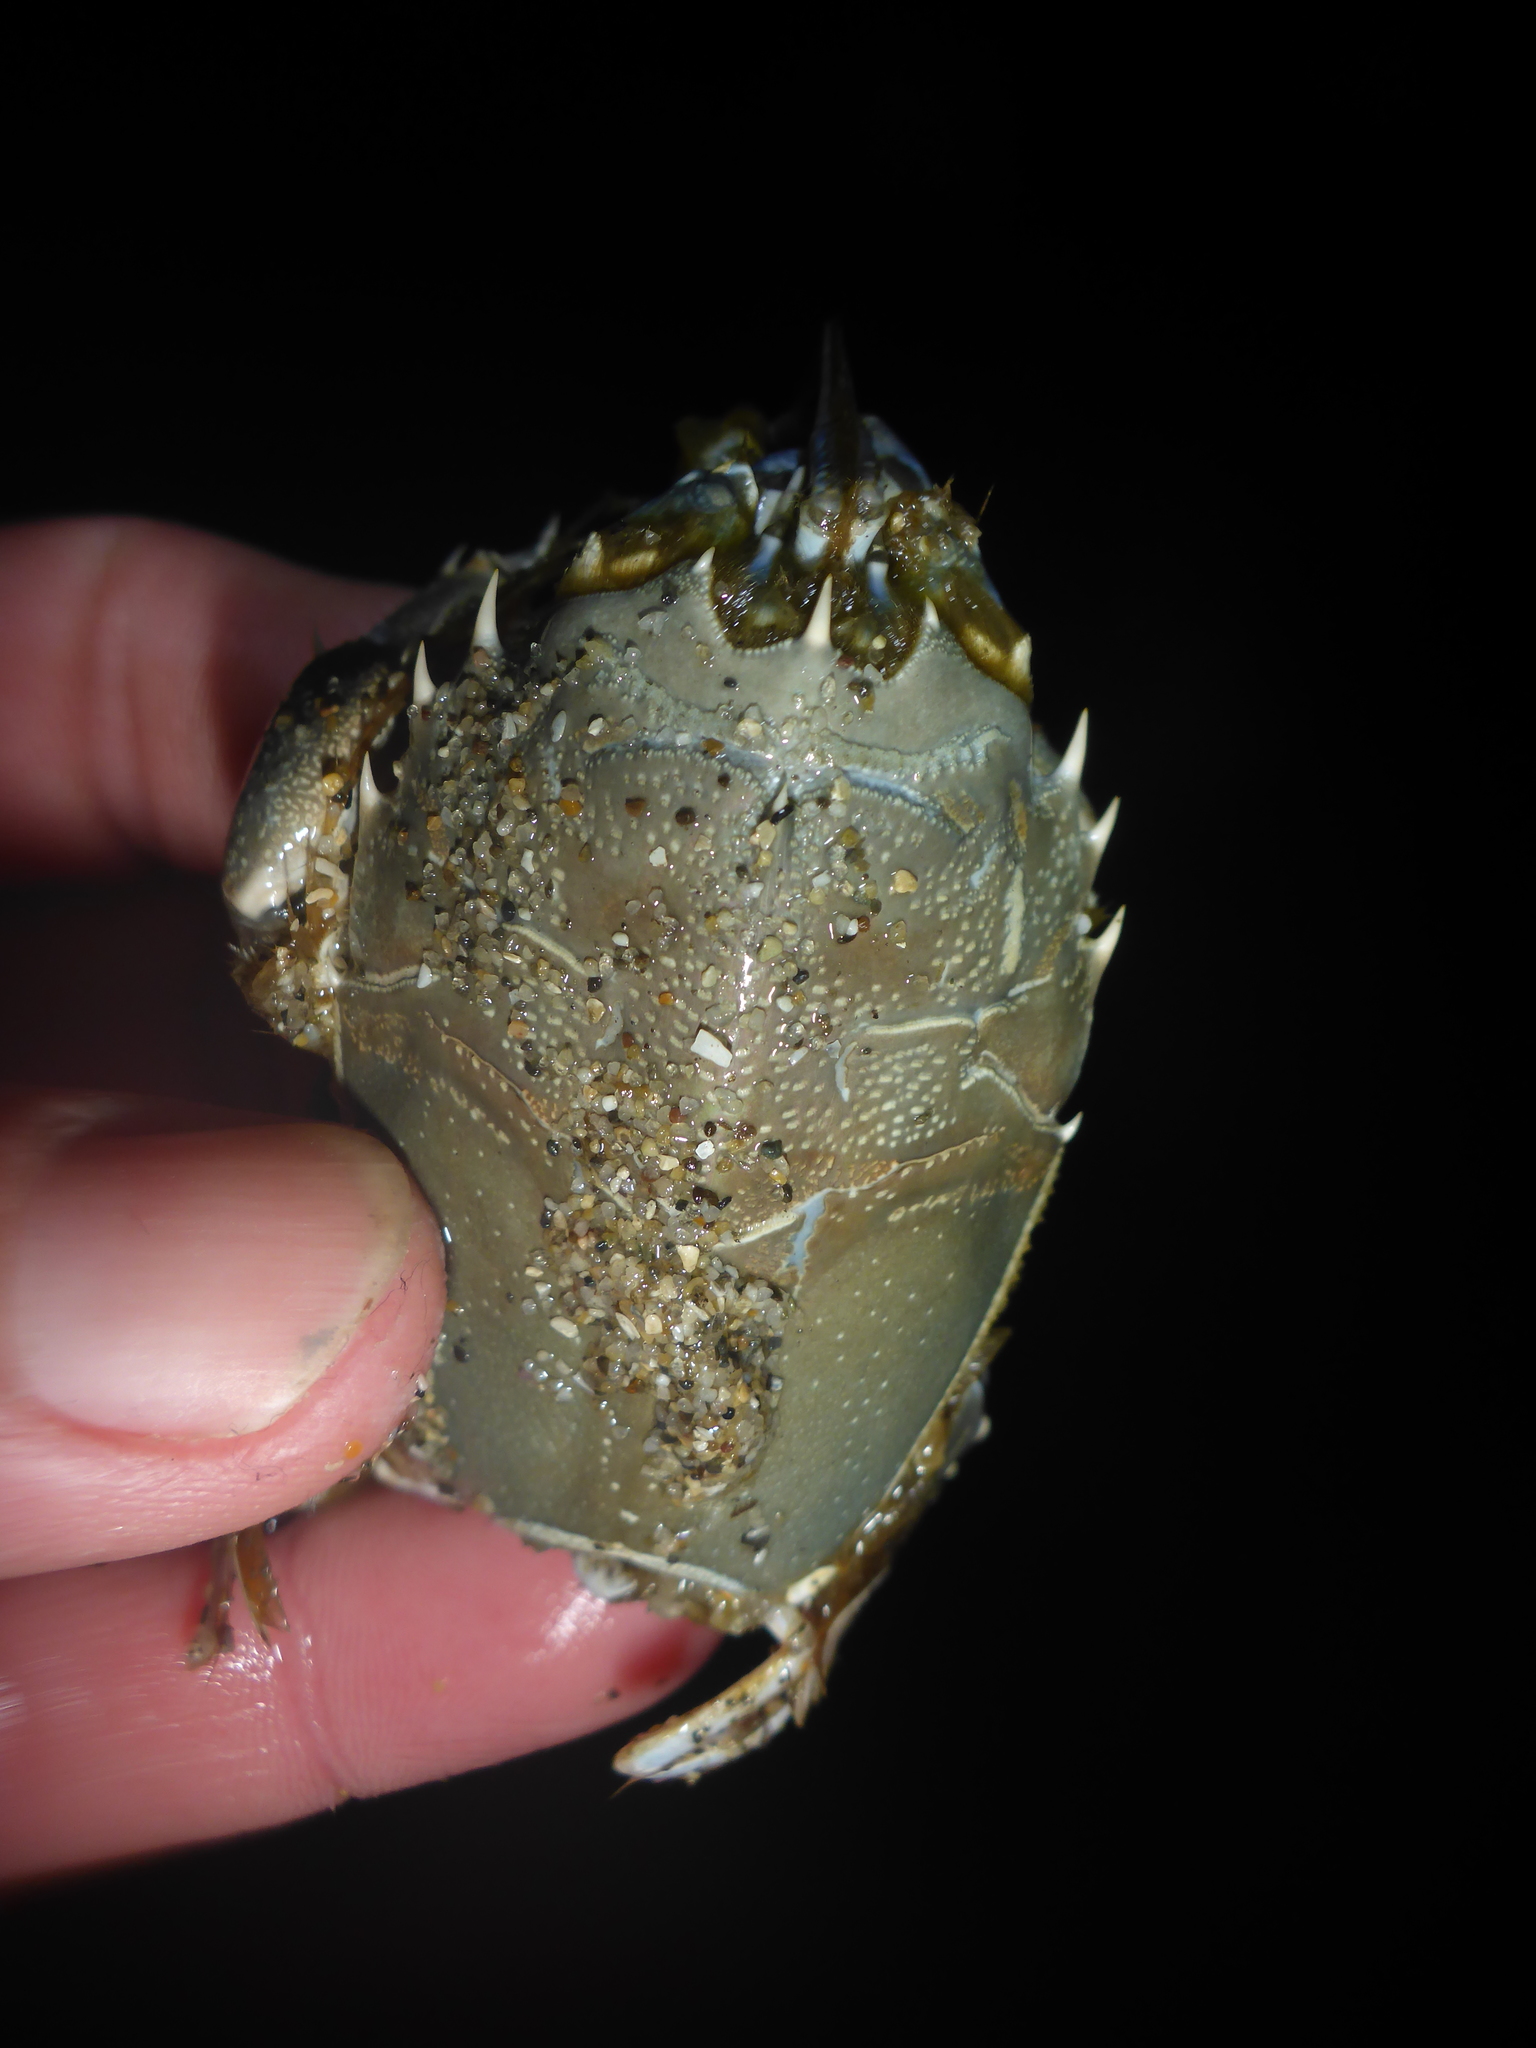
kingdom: Animalia
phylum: Arthropoda
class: Malacostraca
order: Decapoda
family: Blepharipodidae
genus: Blepharipoda
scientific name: Blepharipoda occidentalis
